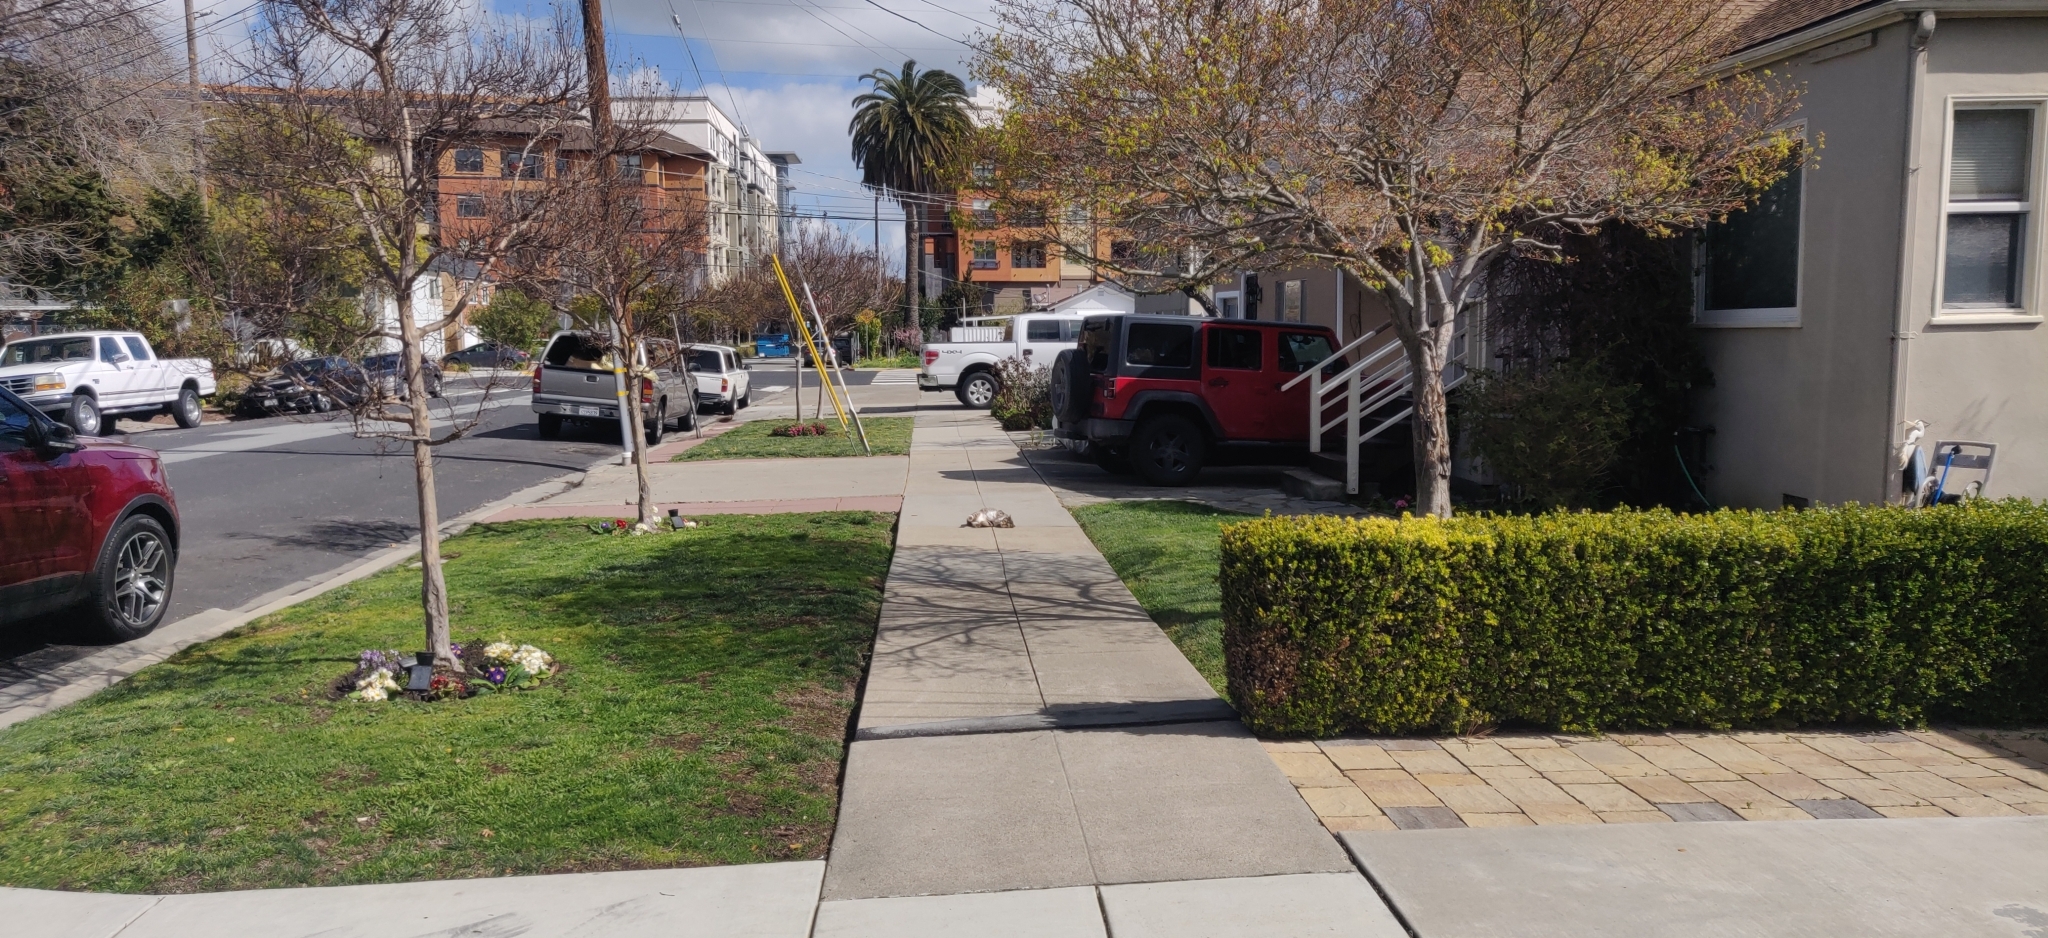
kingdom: Animalia
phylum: Chordata
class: Mammalia
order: Carnivora
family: Felidae
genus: Felis
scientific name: Felis catus
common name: Domestic cat
